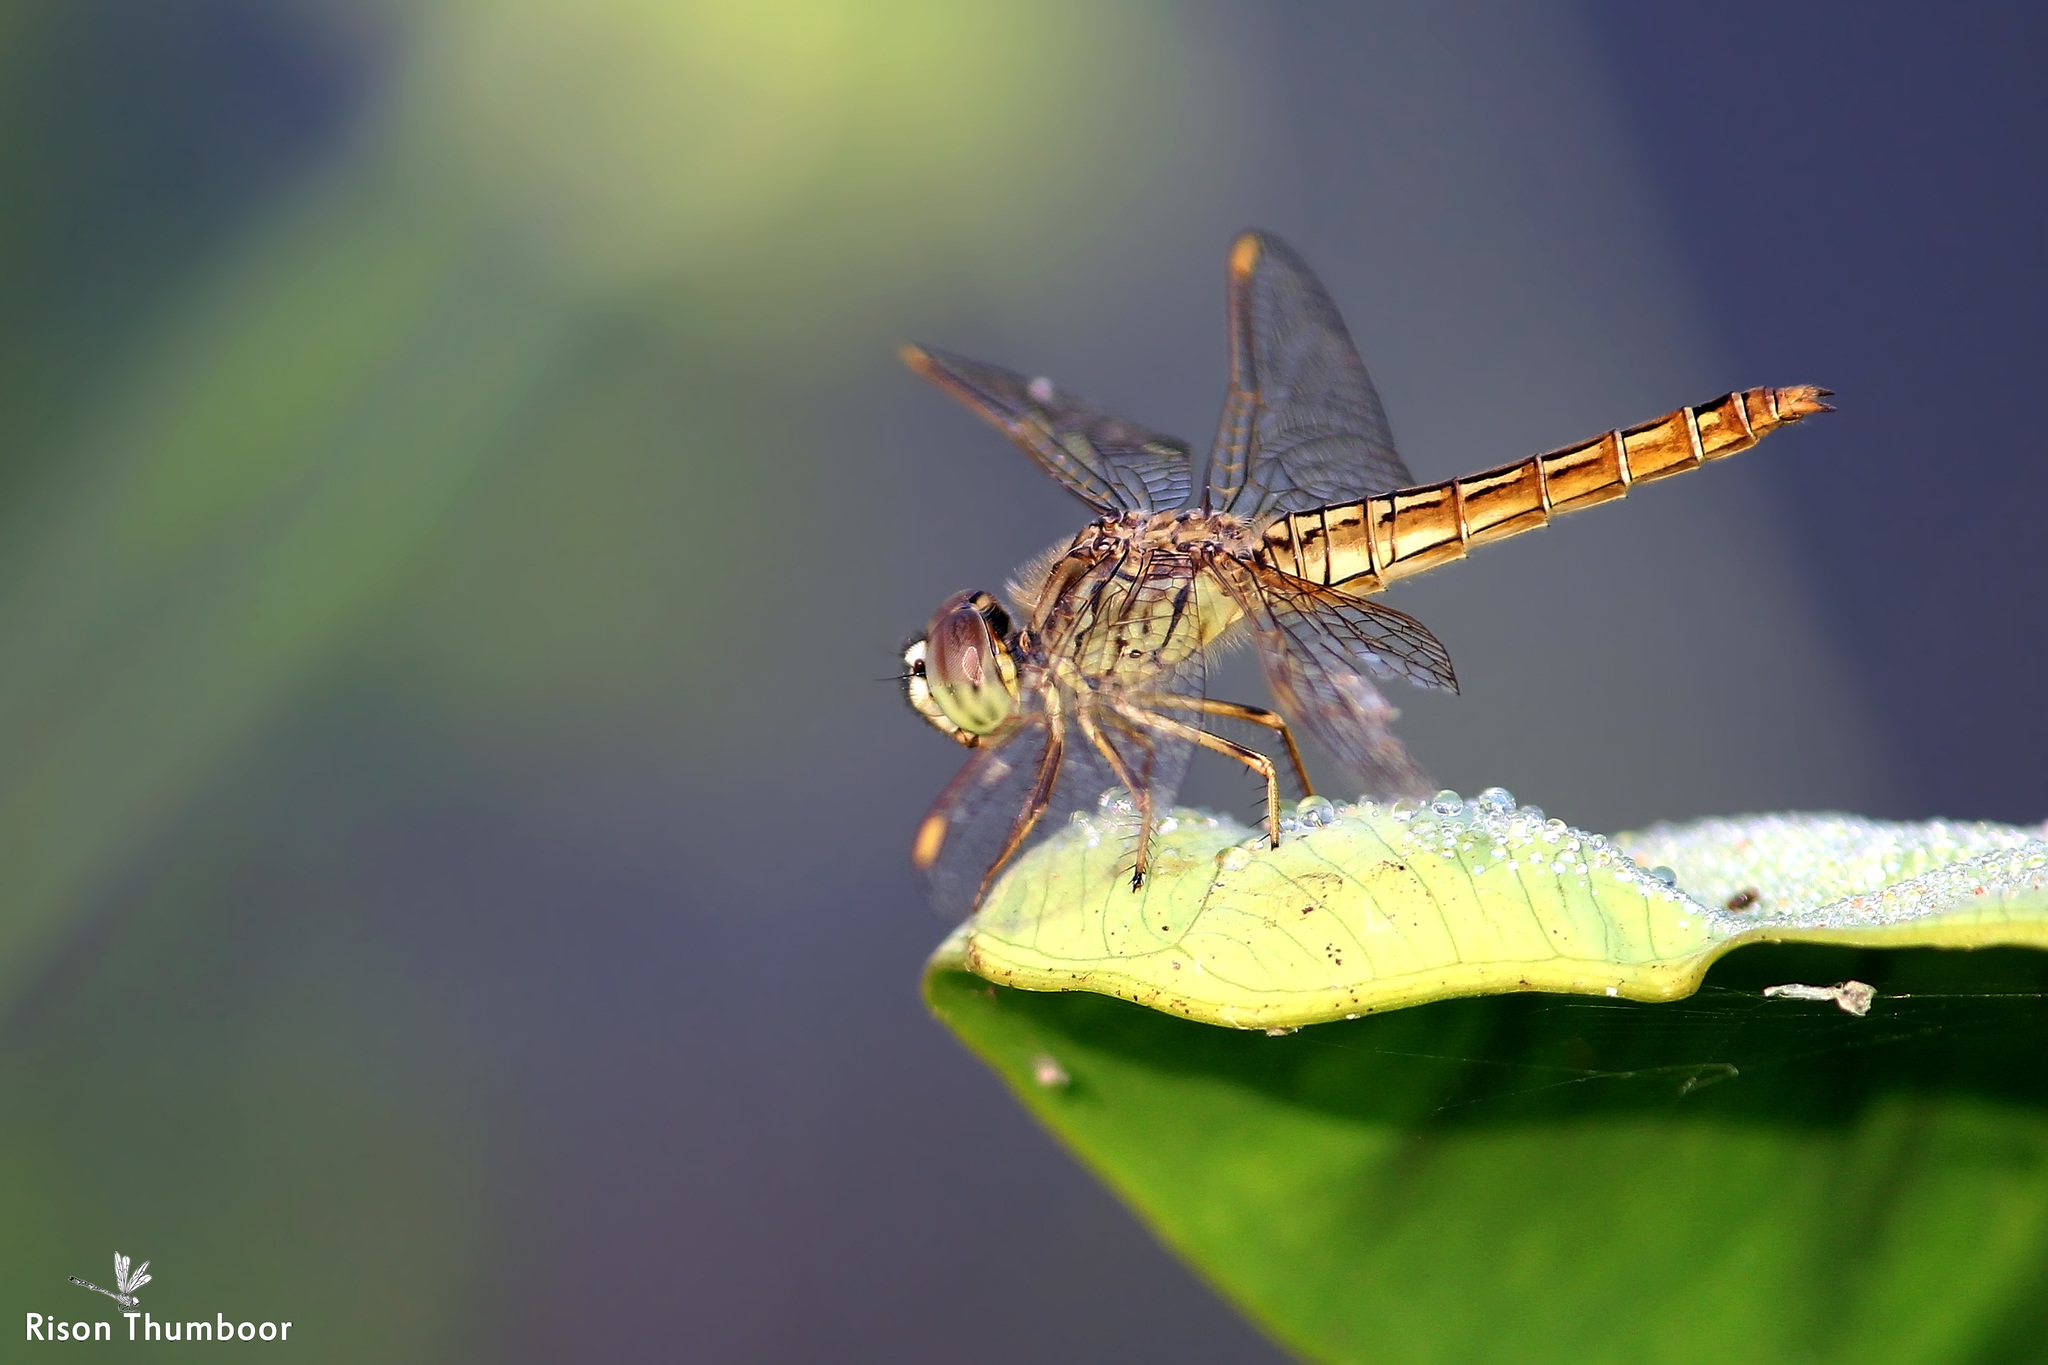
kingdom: Animalia
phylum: Arthropoda
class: Insecta
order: Odonata
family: Libellulidae
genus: Brachythemis
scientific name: Brachythemis contaminata
